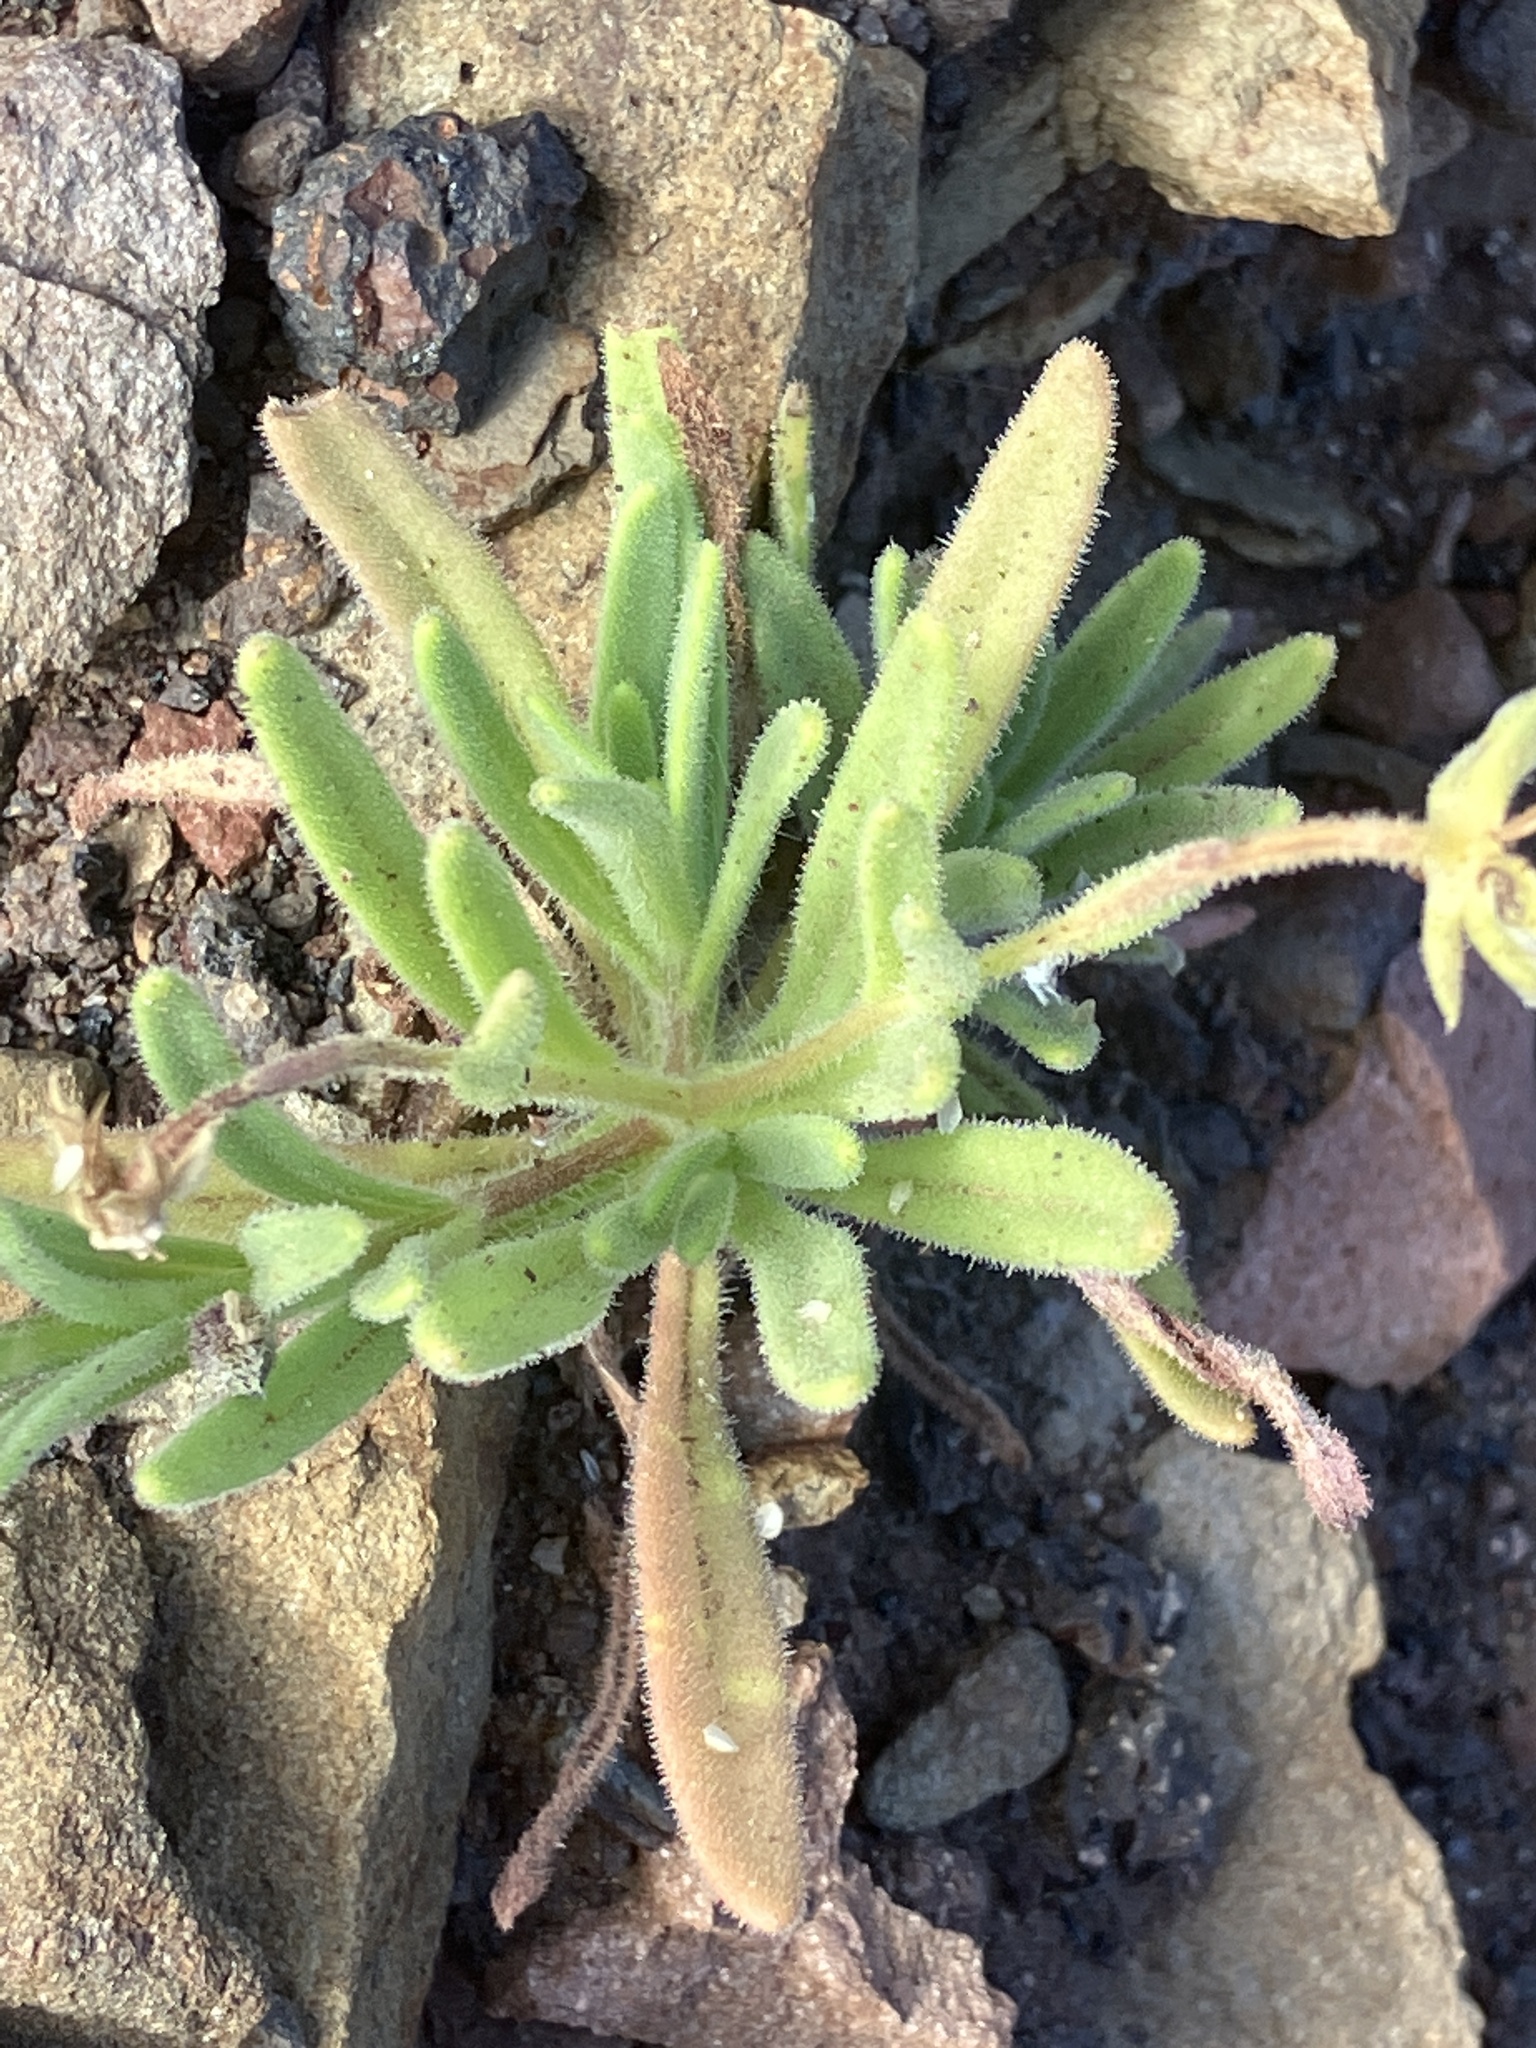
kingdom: Plantae
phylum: Tracheophyta
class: Magnoliopsida
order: Asterales
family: Asteraceae
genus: Osteospermum
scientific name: Osteospermum sanctae-helenae
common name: Boneseed
